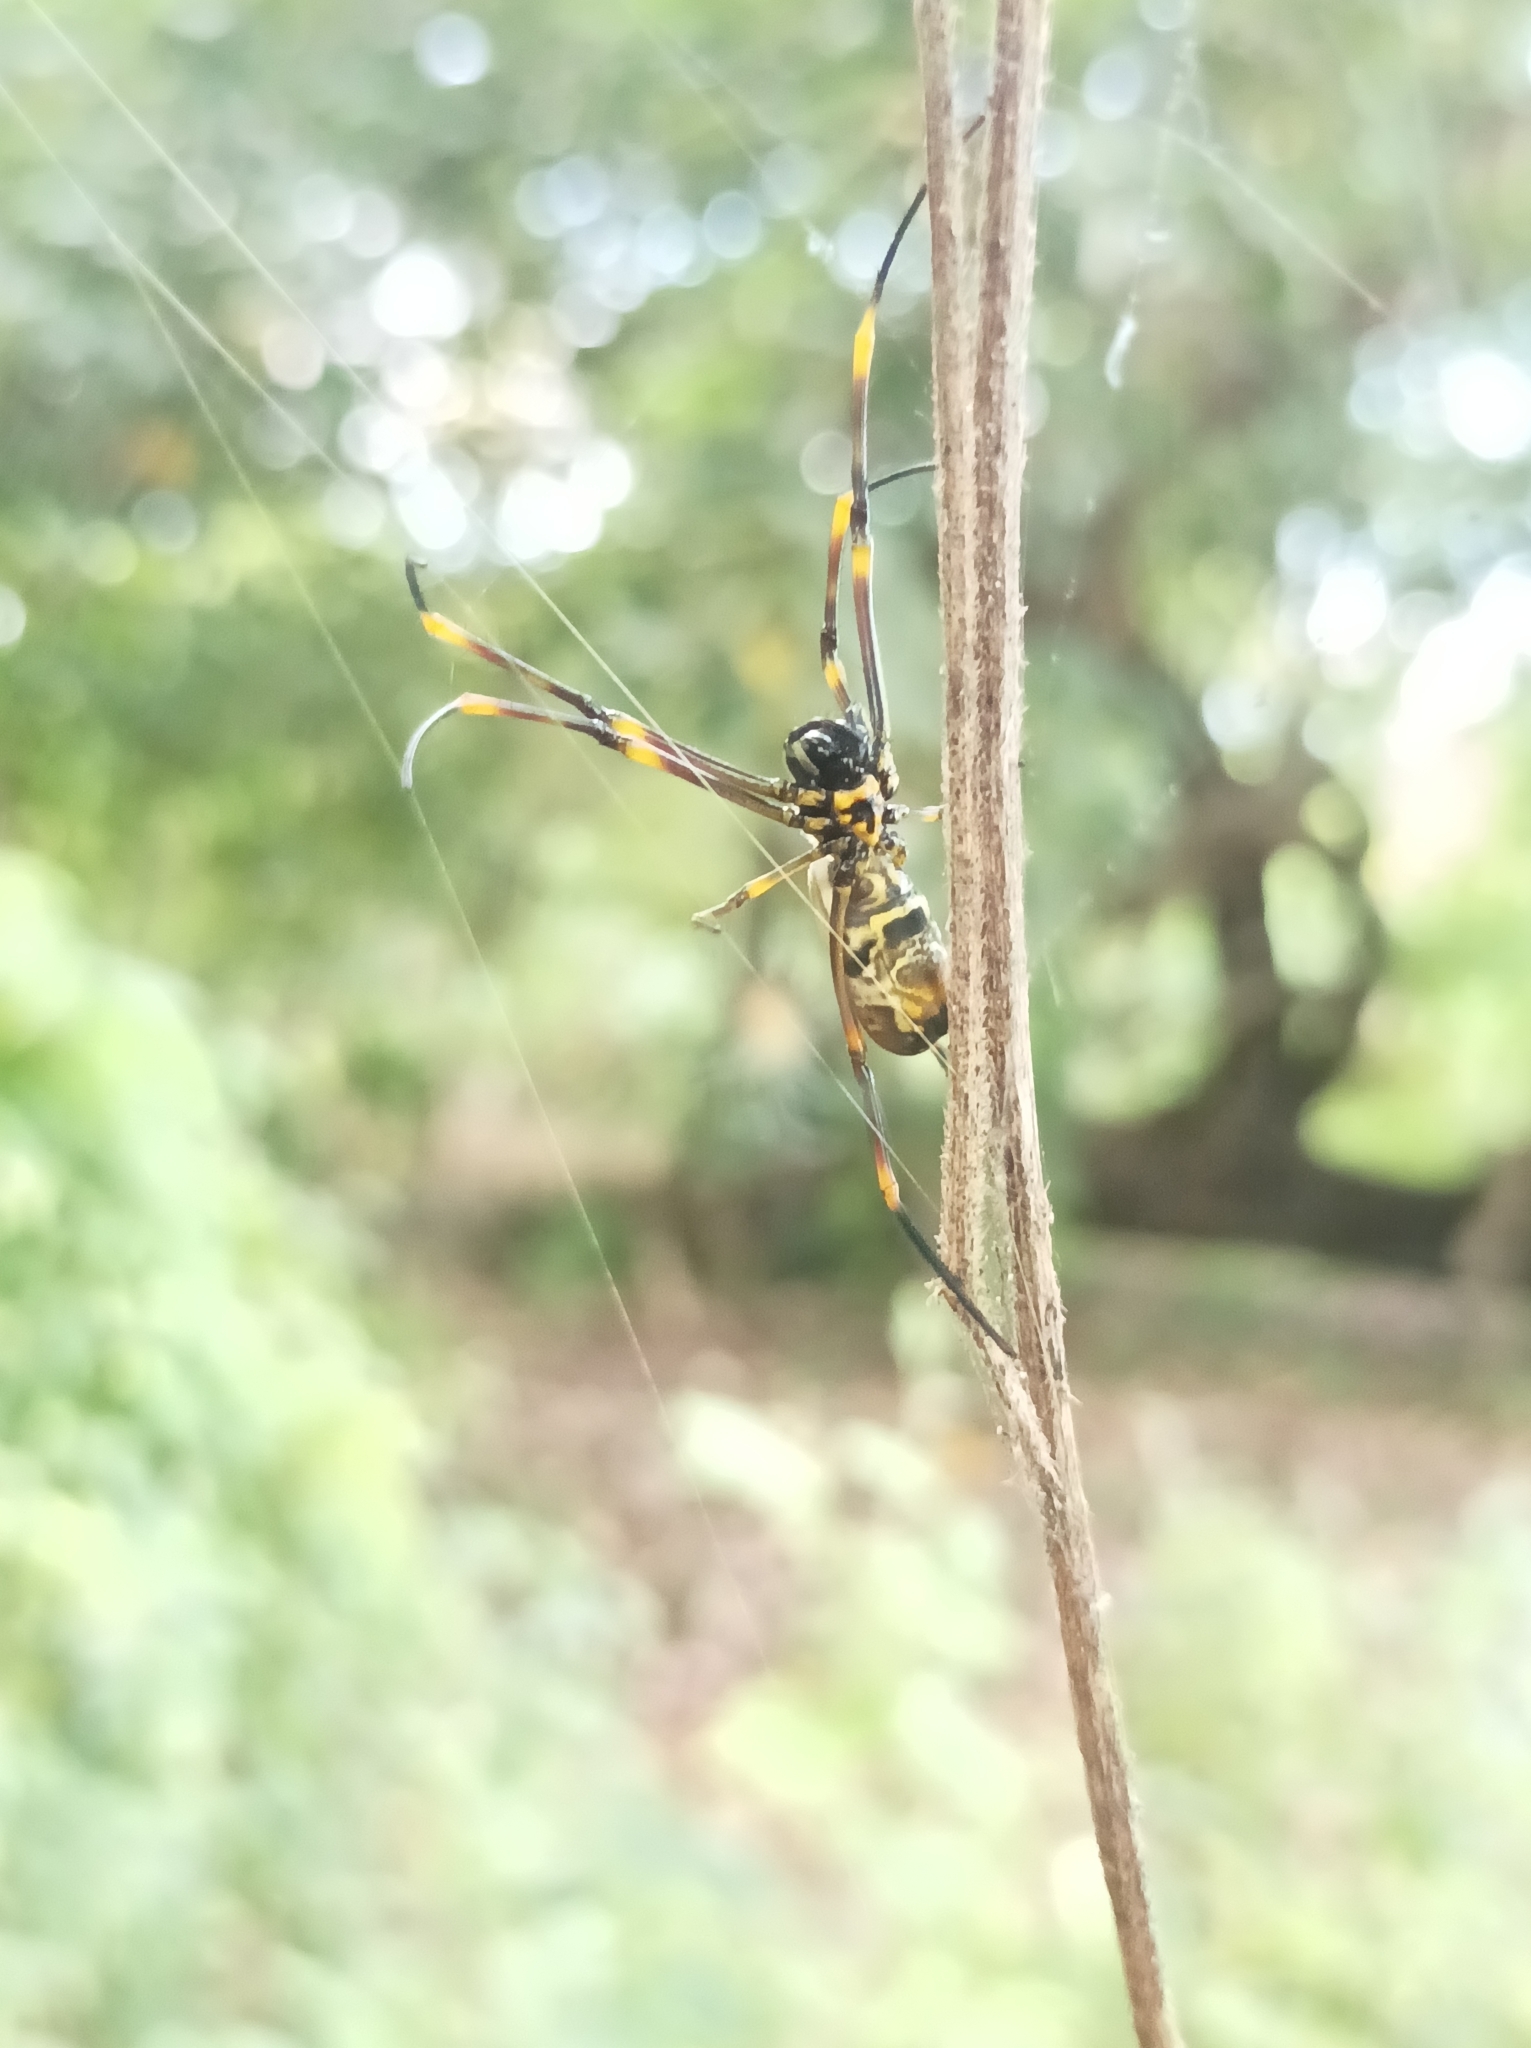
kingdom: Animalia
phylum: Arthropoda
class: Arachnida
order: Araneae
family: Araneidae
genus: Trichonephila
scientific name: Trichonephila plumipes
